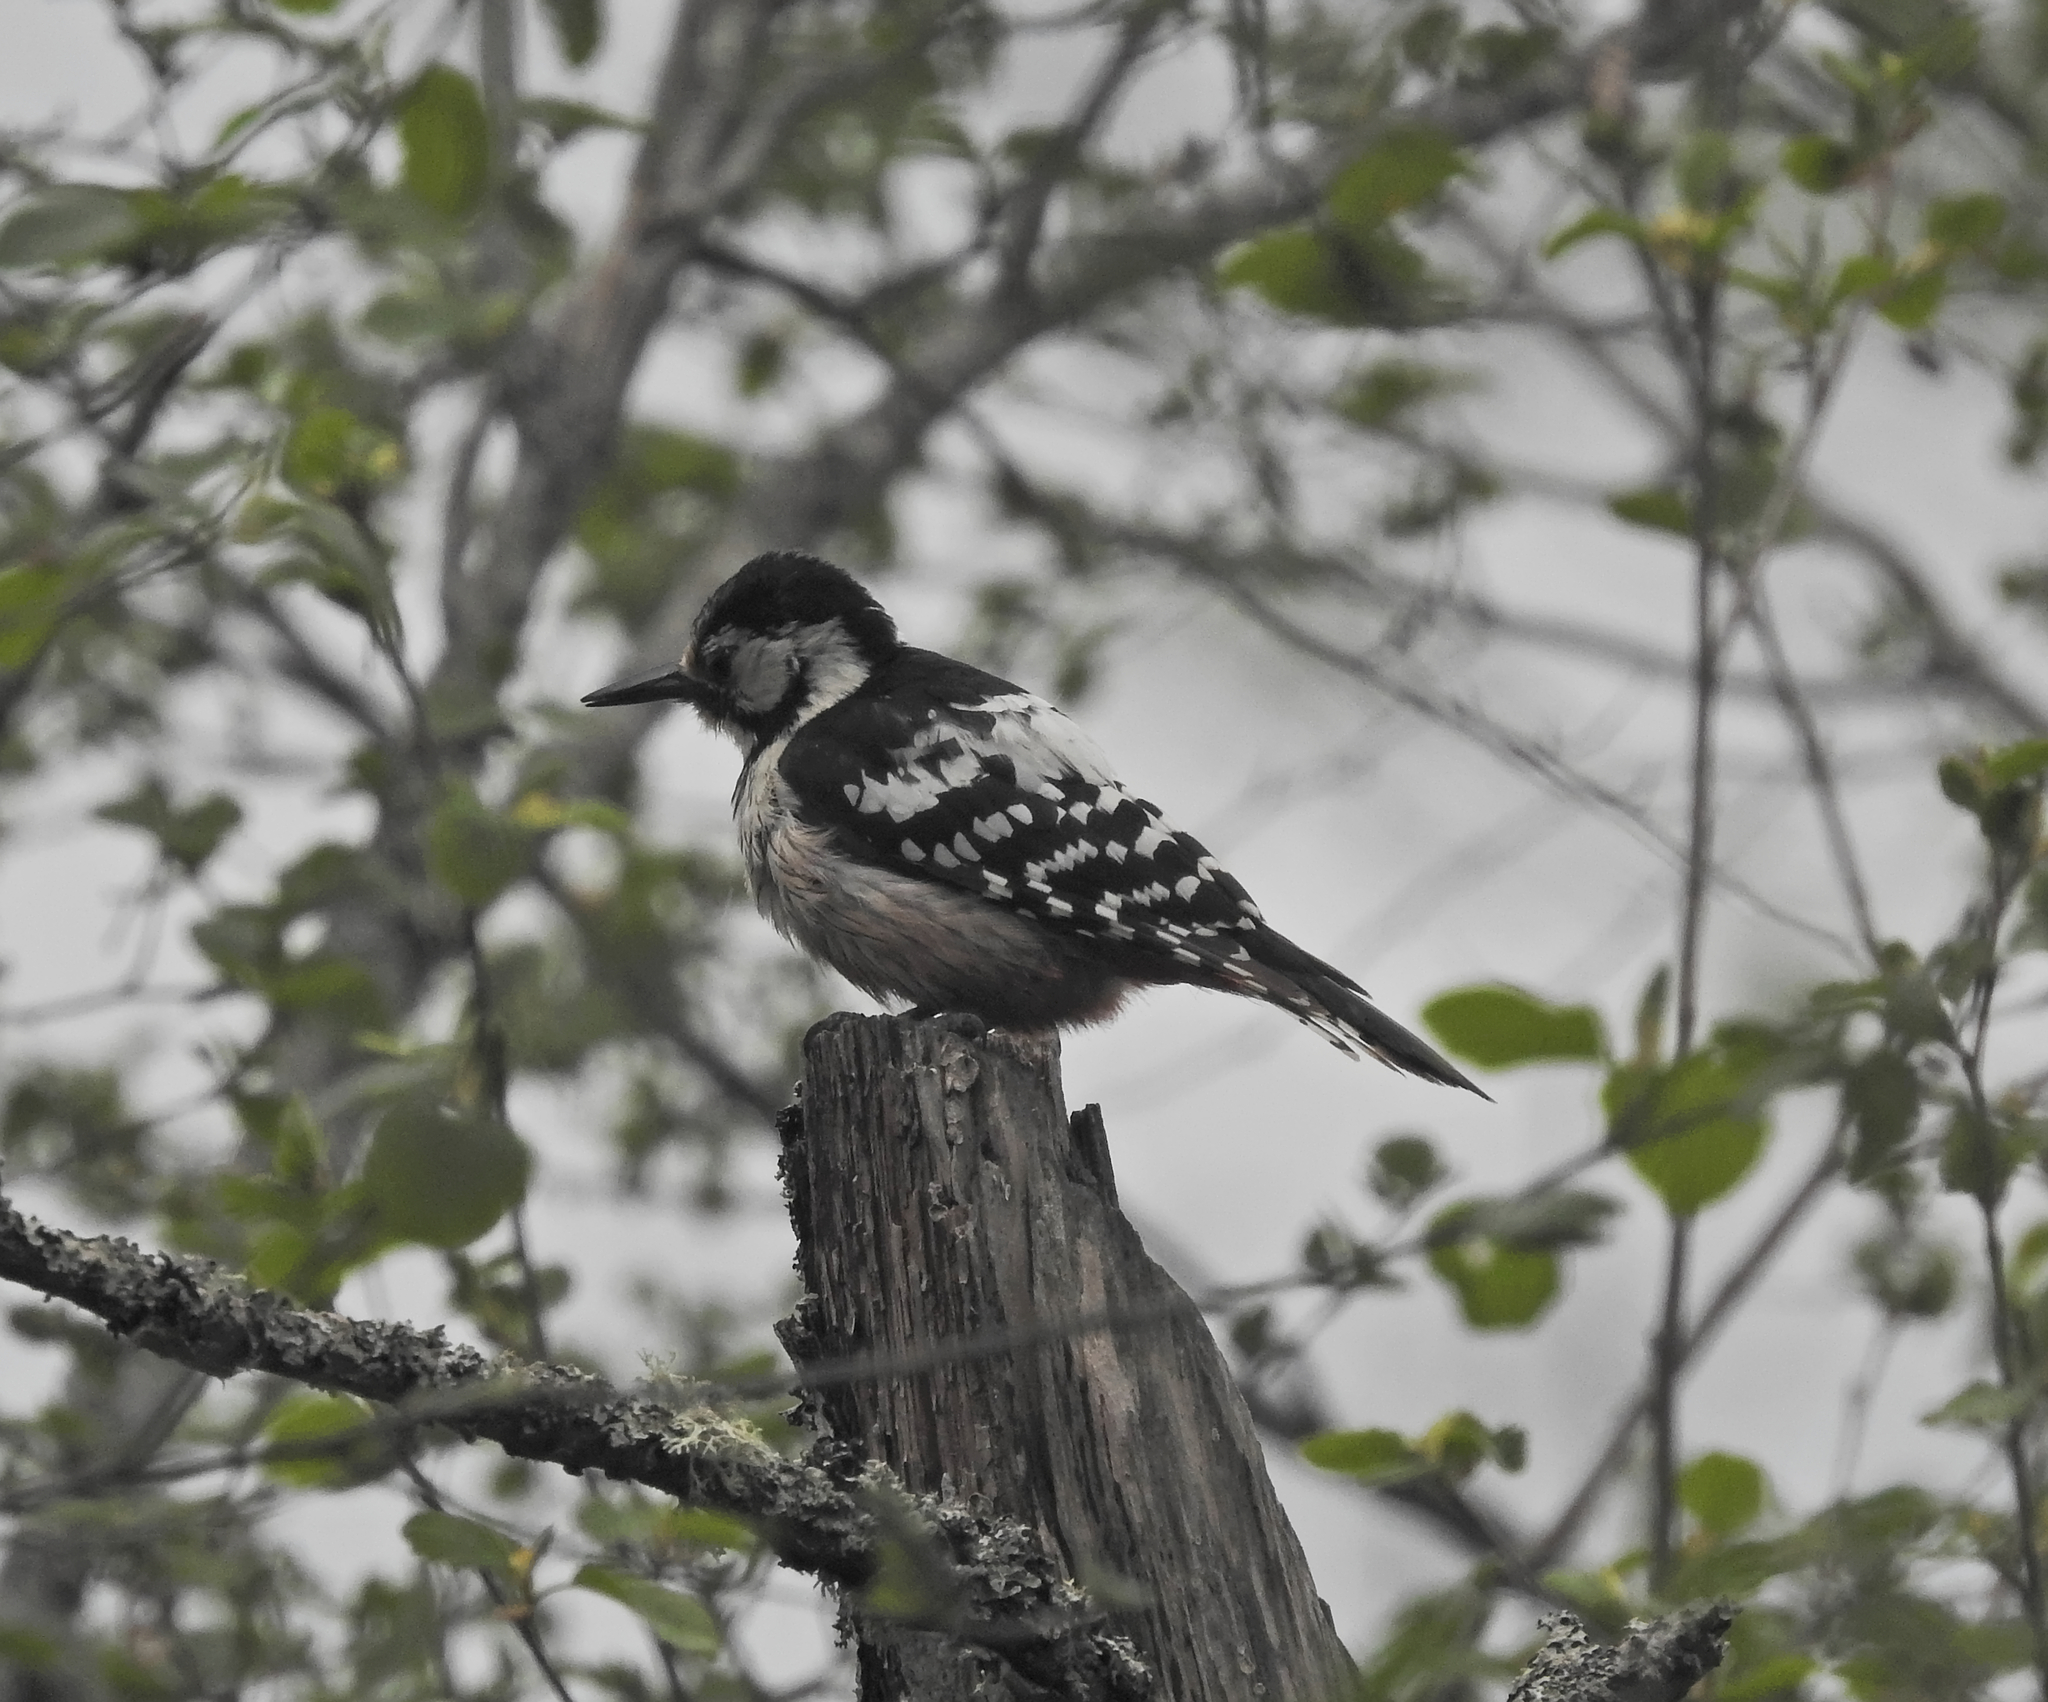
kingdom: Animalia
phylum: Chordata
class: Aves
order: Piciformes
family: Picidae
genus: Dendrocopos
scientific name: Dendrocopos leucotos
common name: White-backed woodpecker
